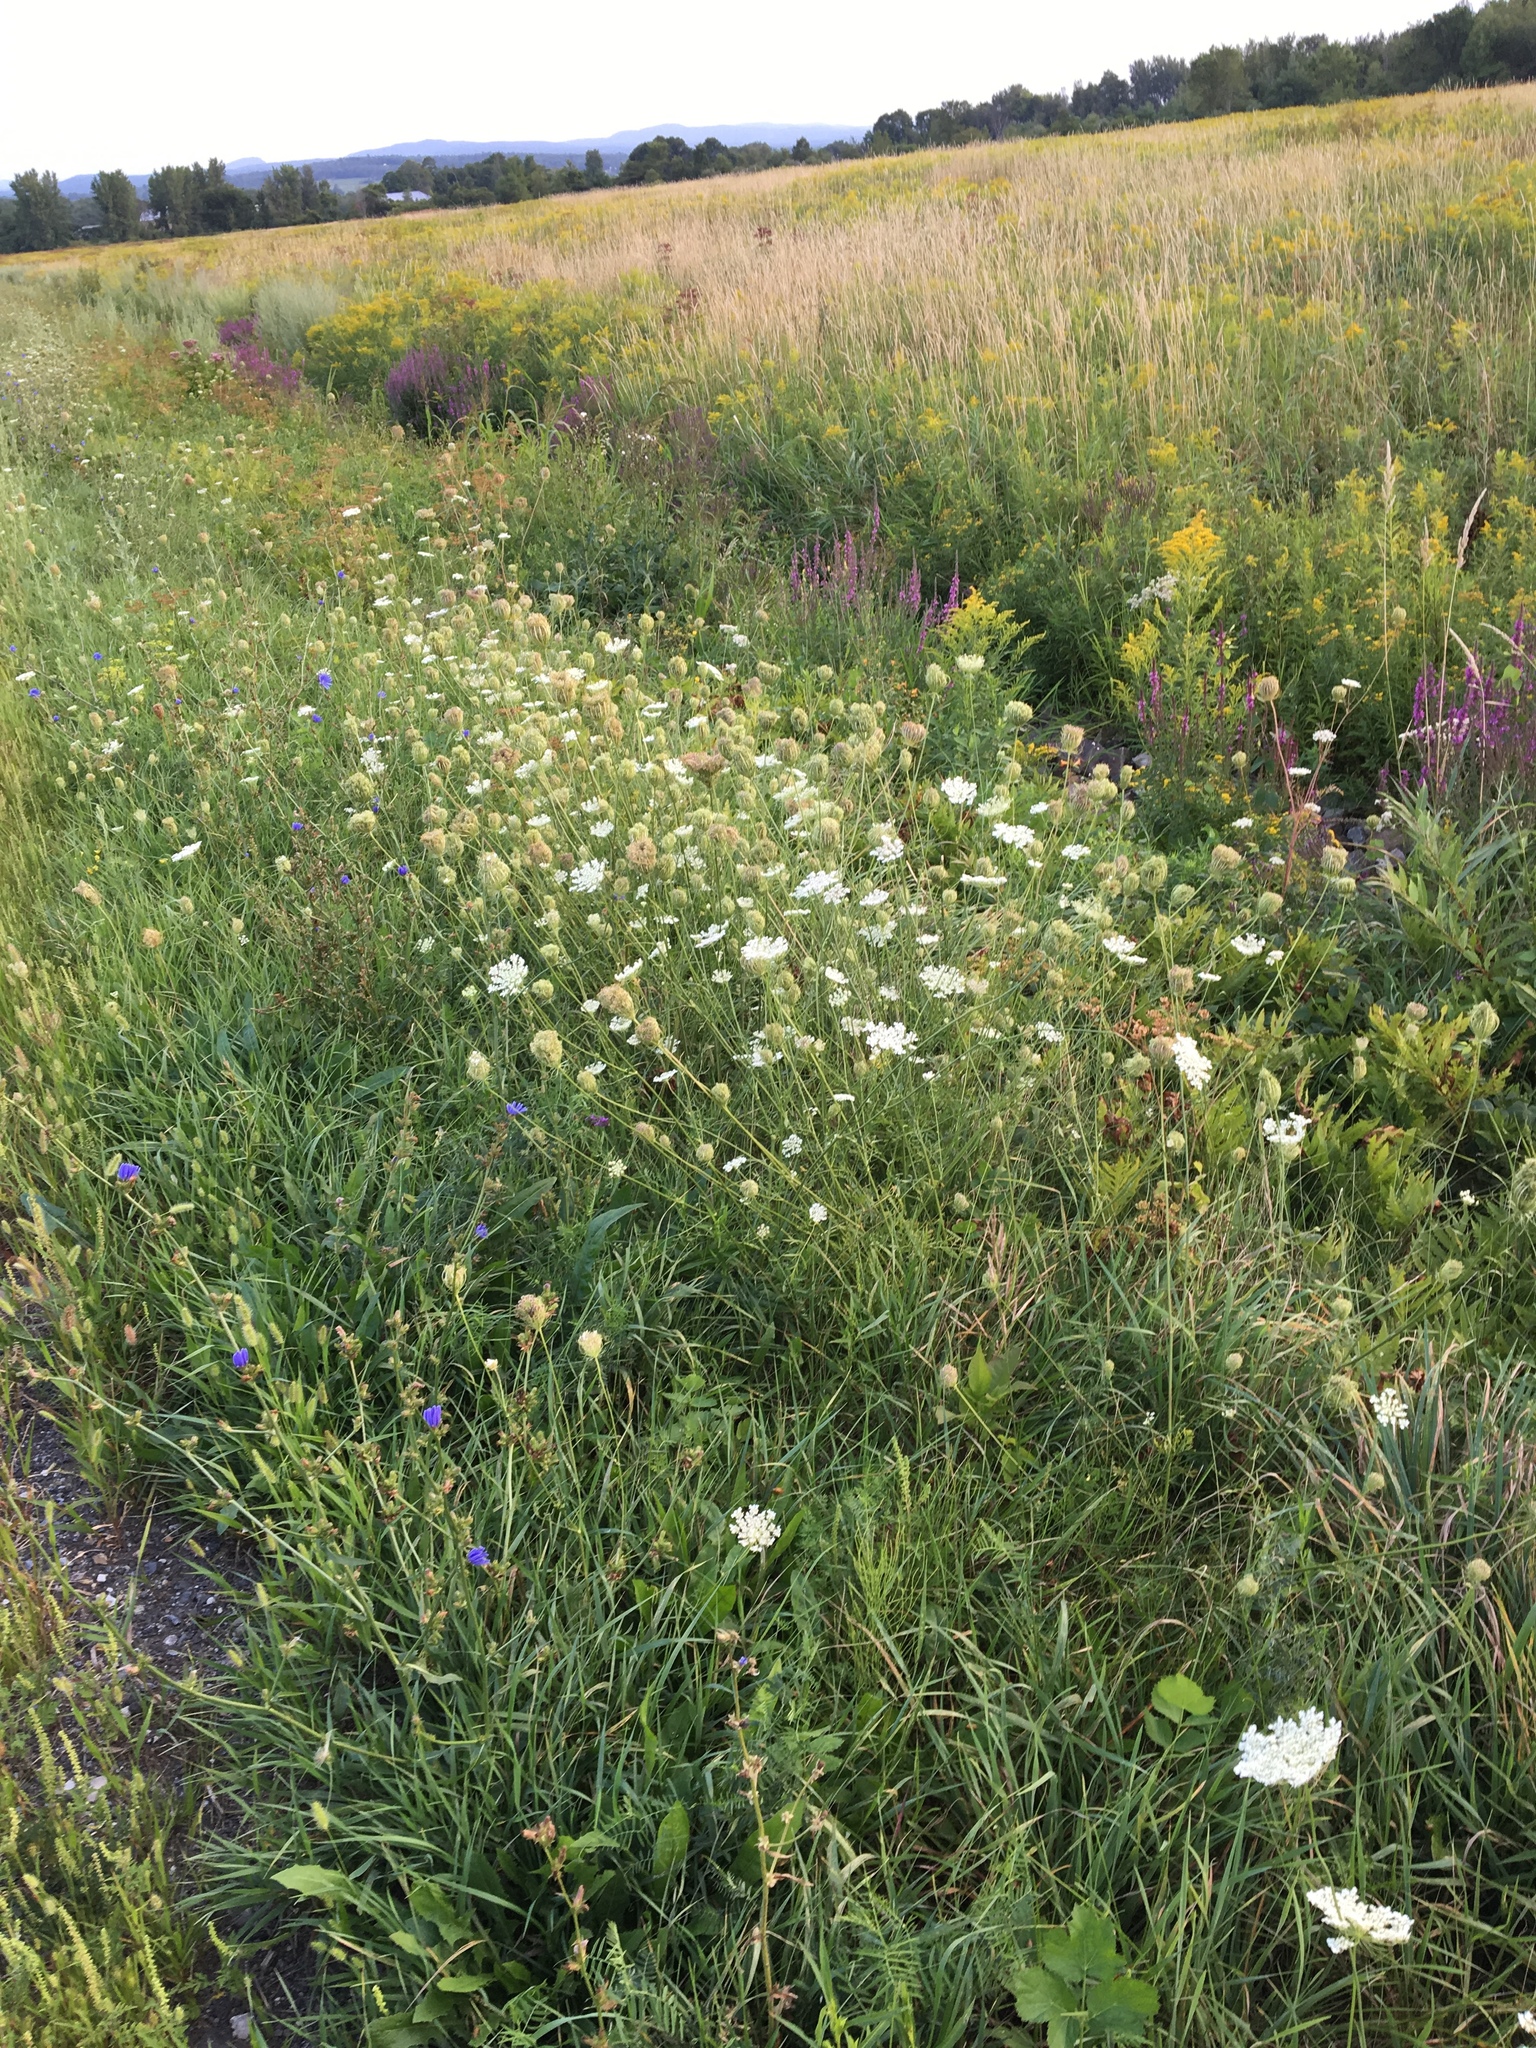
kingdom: Plantae
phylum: Tracheophyta
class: Magnoliopsida
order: Apiales
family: Apiaceae
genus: Daucus
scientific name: Daucus carota
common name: Wild carrot
